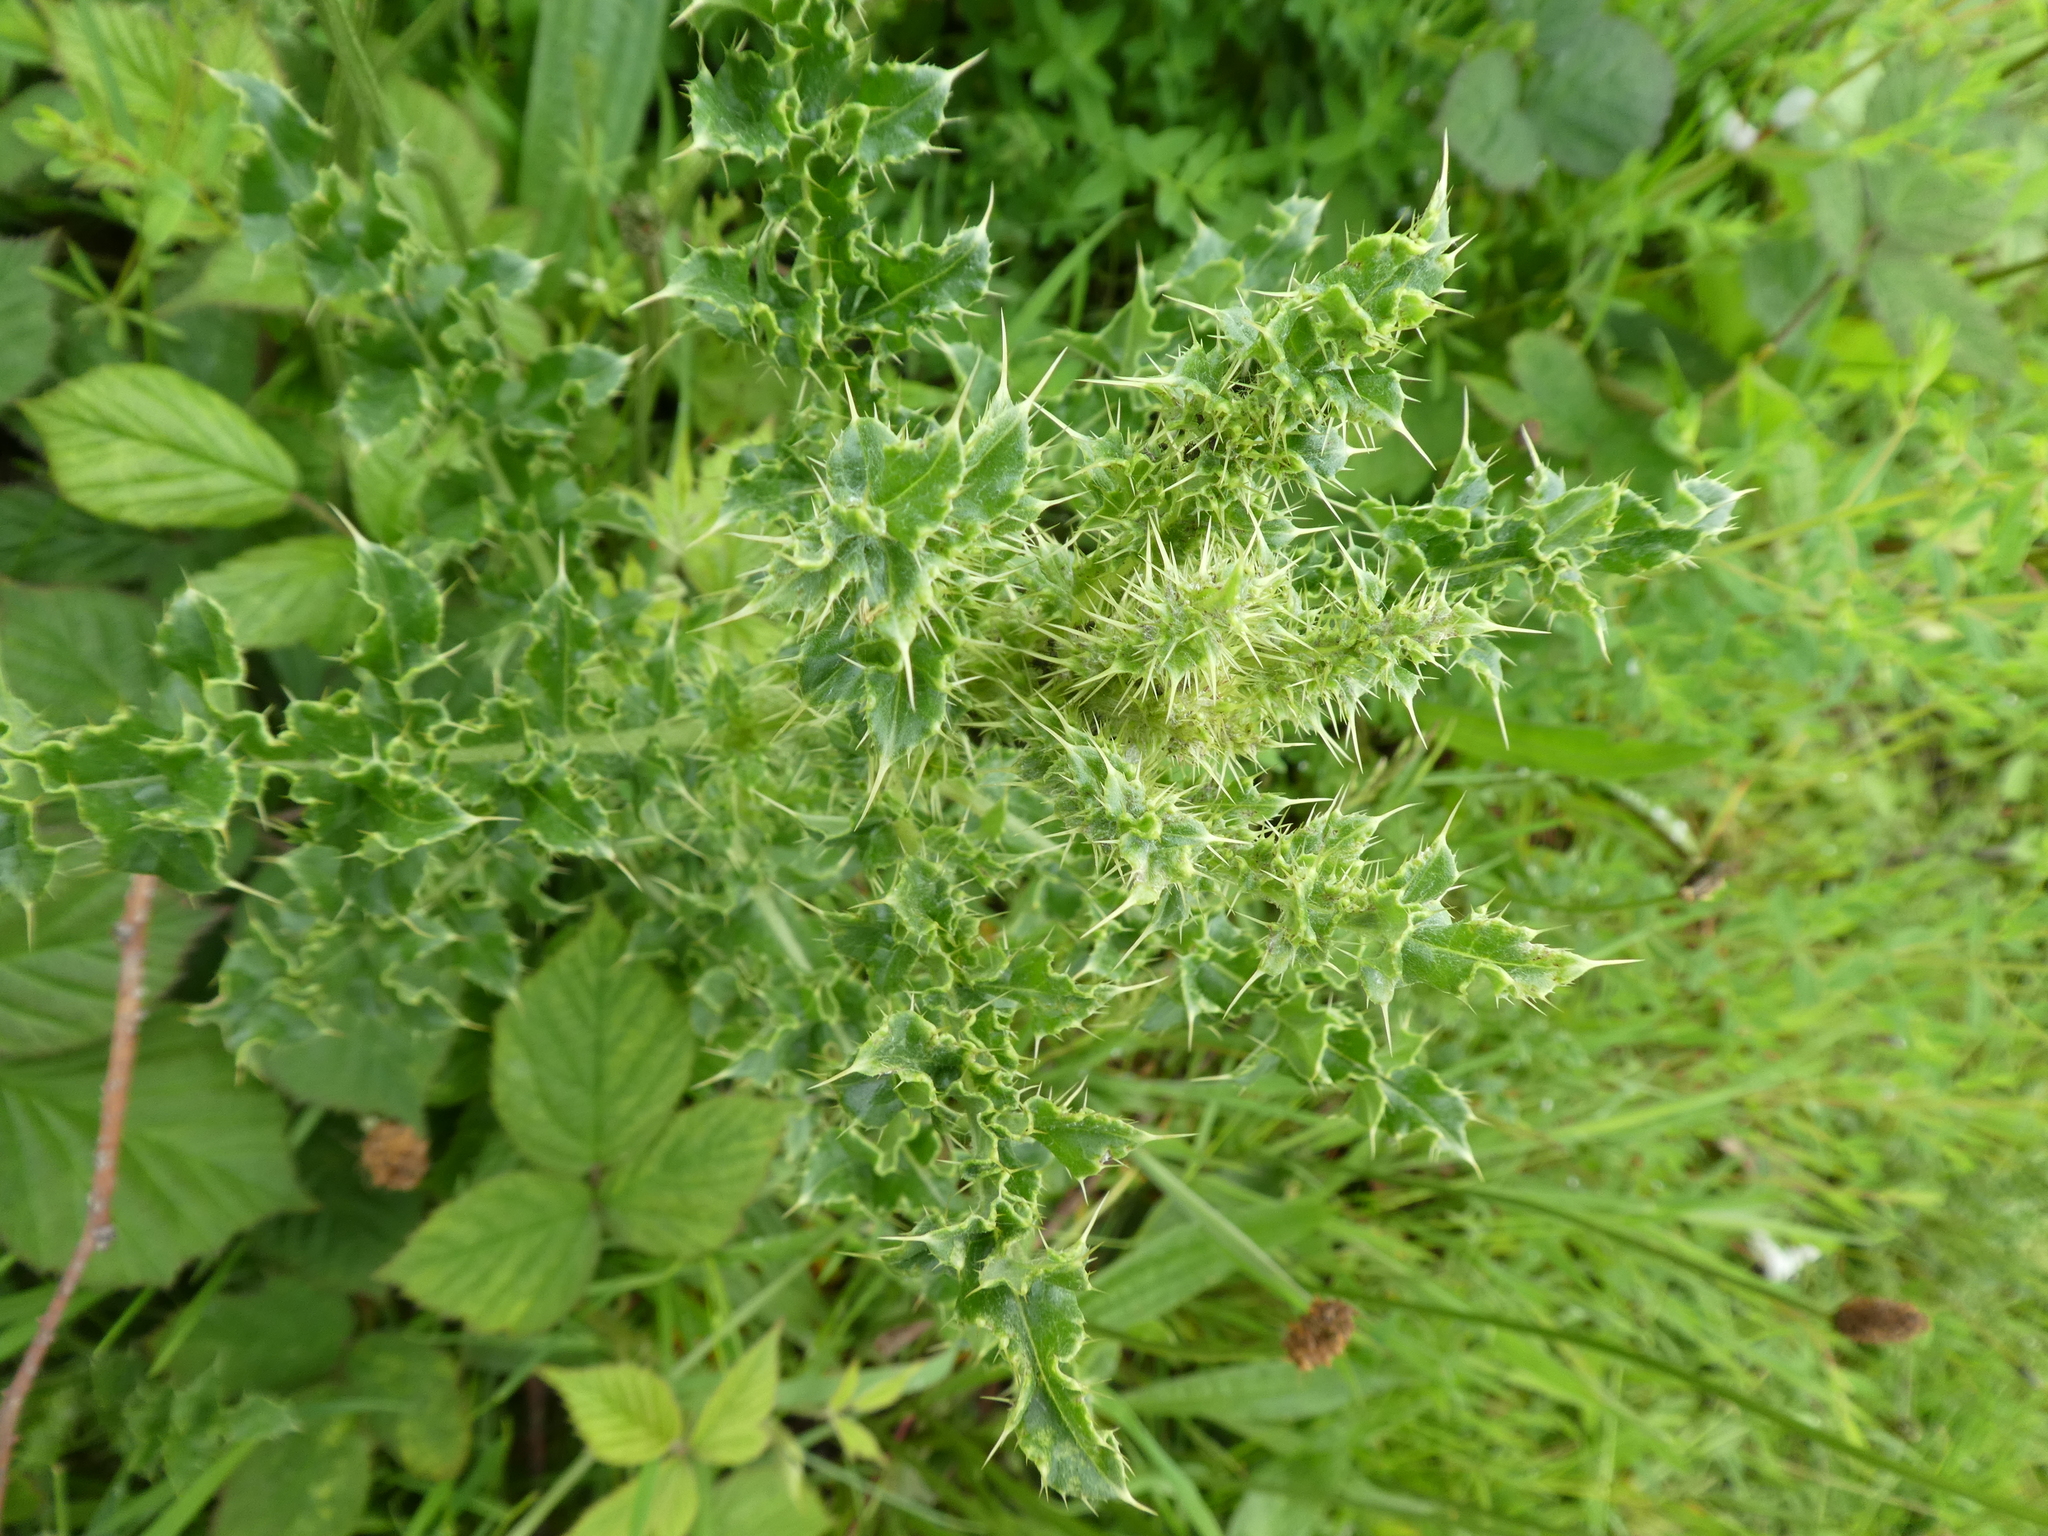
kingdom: Plantae
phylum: Tracheophyta
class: Magnoliopsida
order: Asterales
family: Asteraceae
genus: Cirsium
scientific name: Cirsium arvense
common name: Creeping thistle
